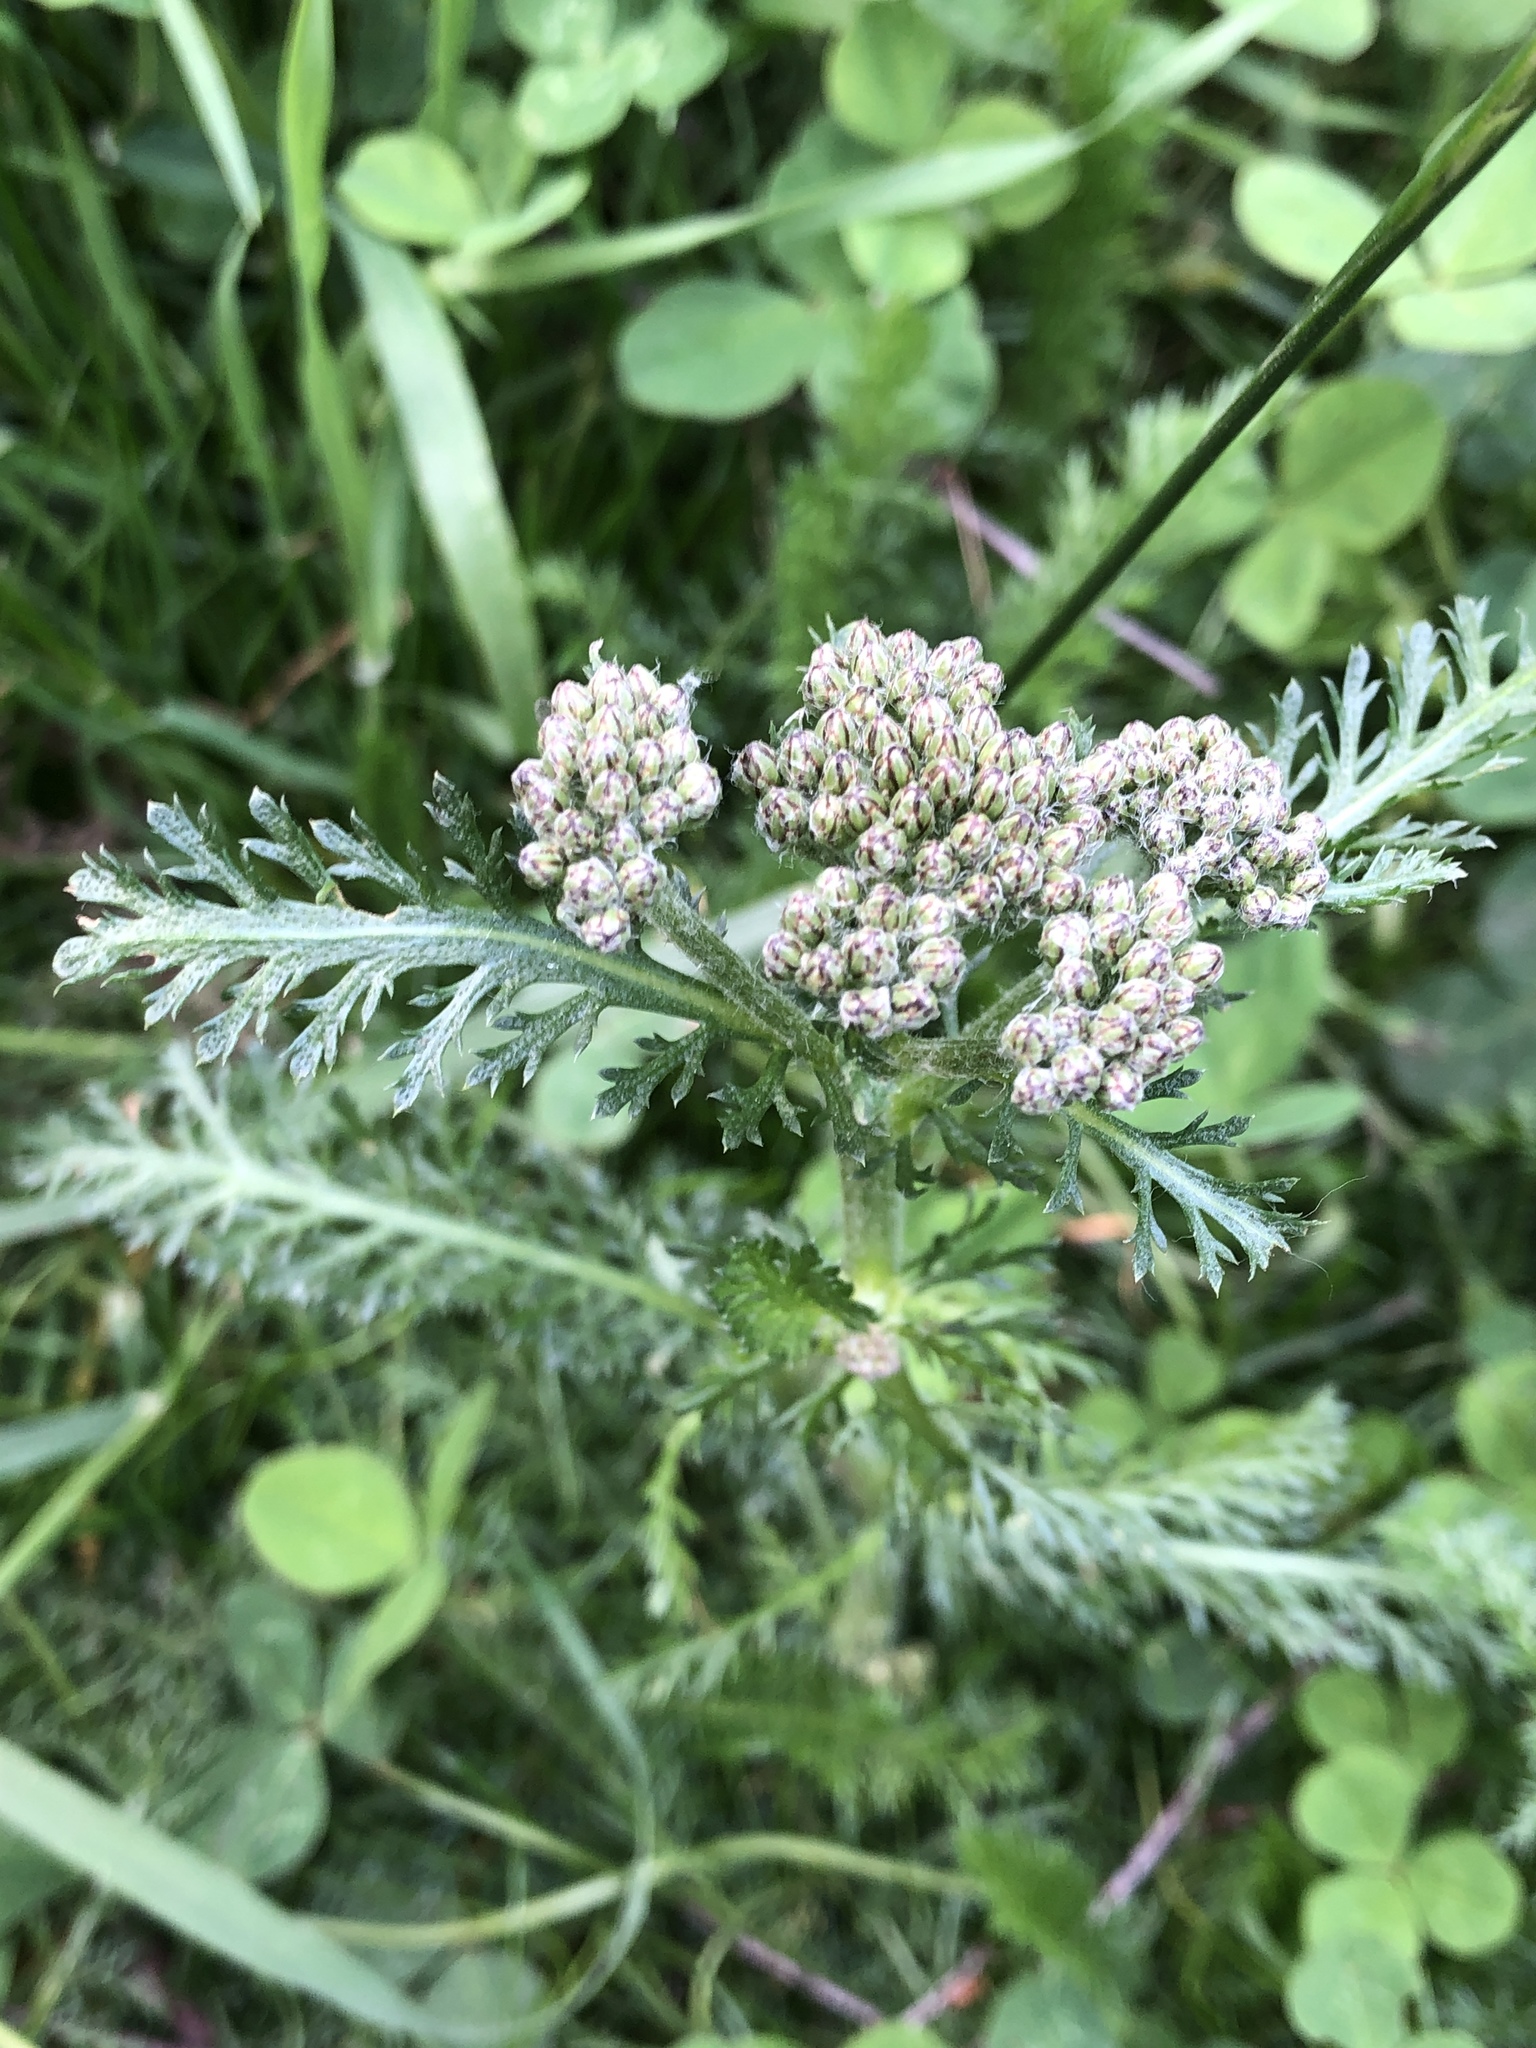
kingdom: Plantae
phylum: Tracheophyta
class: Magnoliopsida
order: Asterales
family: Asteraceae
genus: Achillea
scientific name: Achillea millefolium
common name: Yarrow
